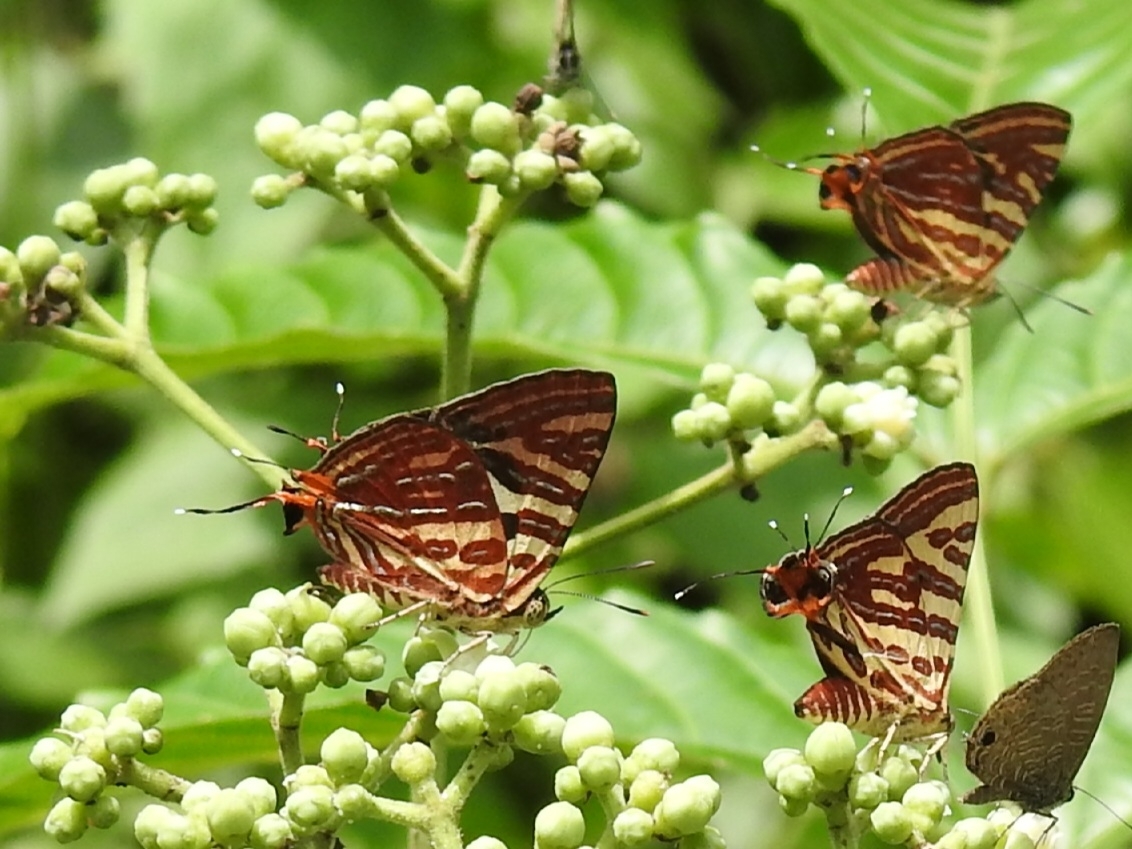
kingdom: Animalia
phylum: Arthropoda
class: Insecta
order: Lepidoptera
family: Lycaenidae
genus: Cigaritis
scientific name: Cigaritis lohita
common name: Long-banded silverline
